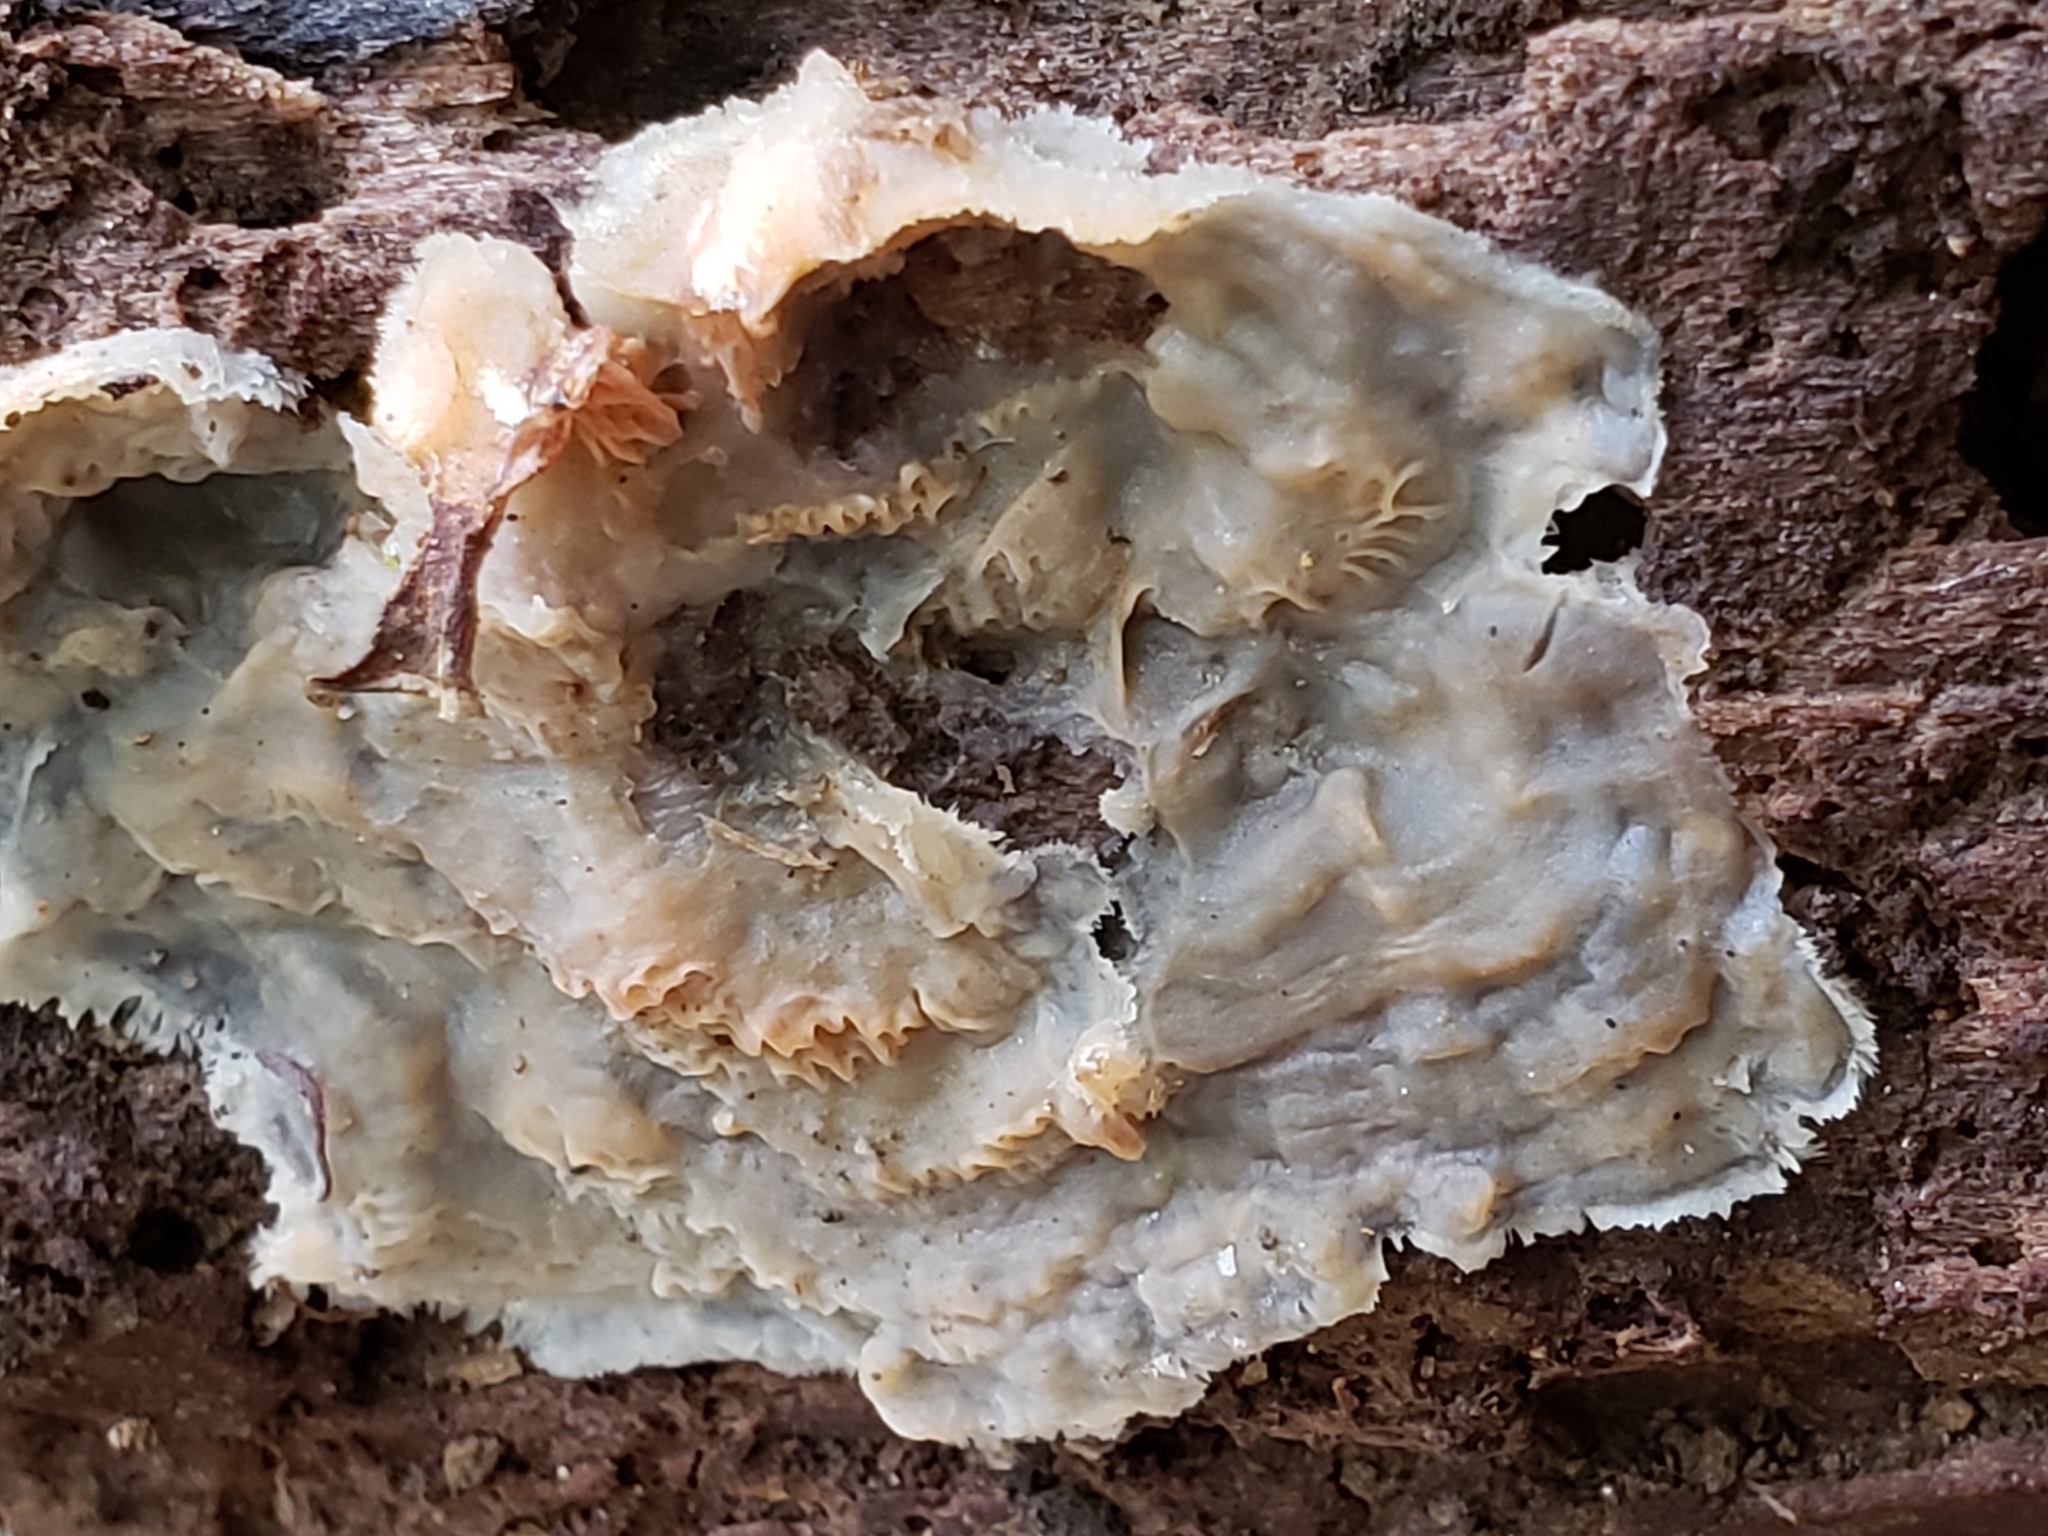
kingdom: Fungi
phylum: Basidiomycota
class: Agaricomycetes
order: Polyporales
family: Meruliaceae
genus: Phlebia
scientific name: Phlebia tremellosa
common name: Jelly rot
